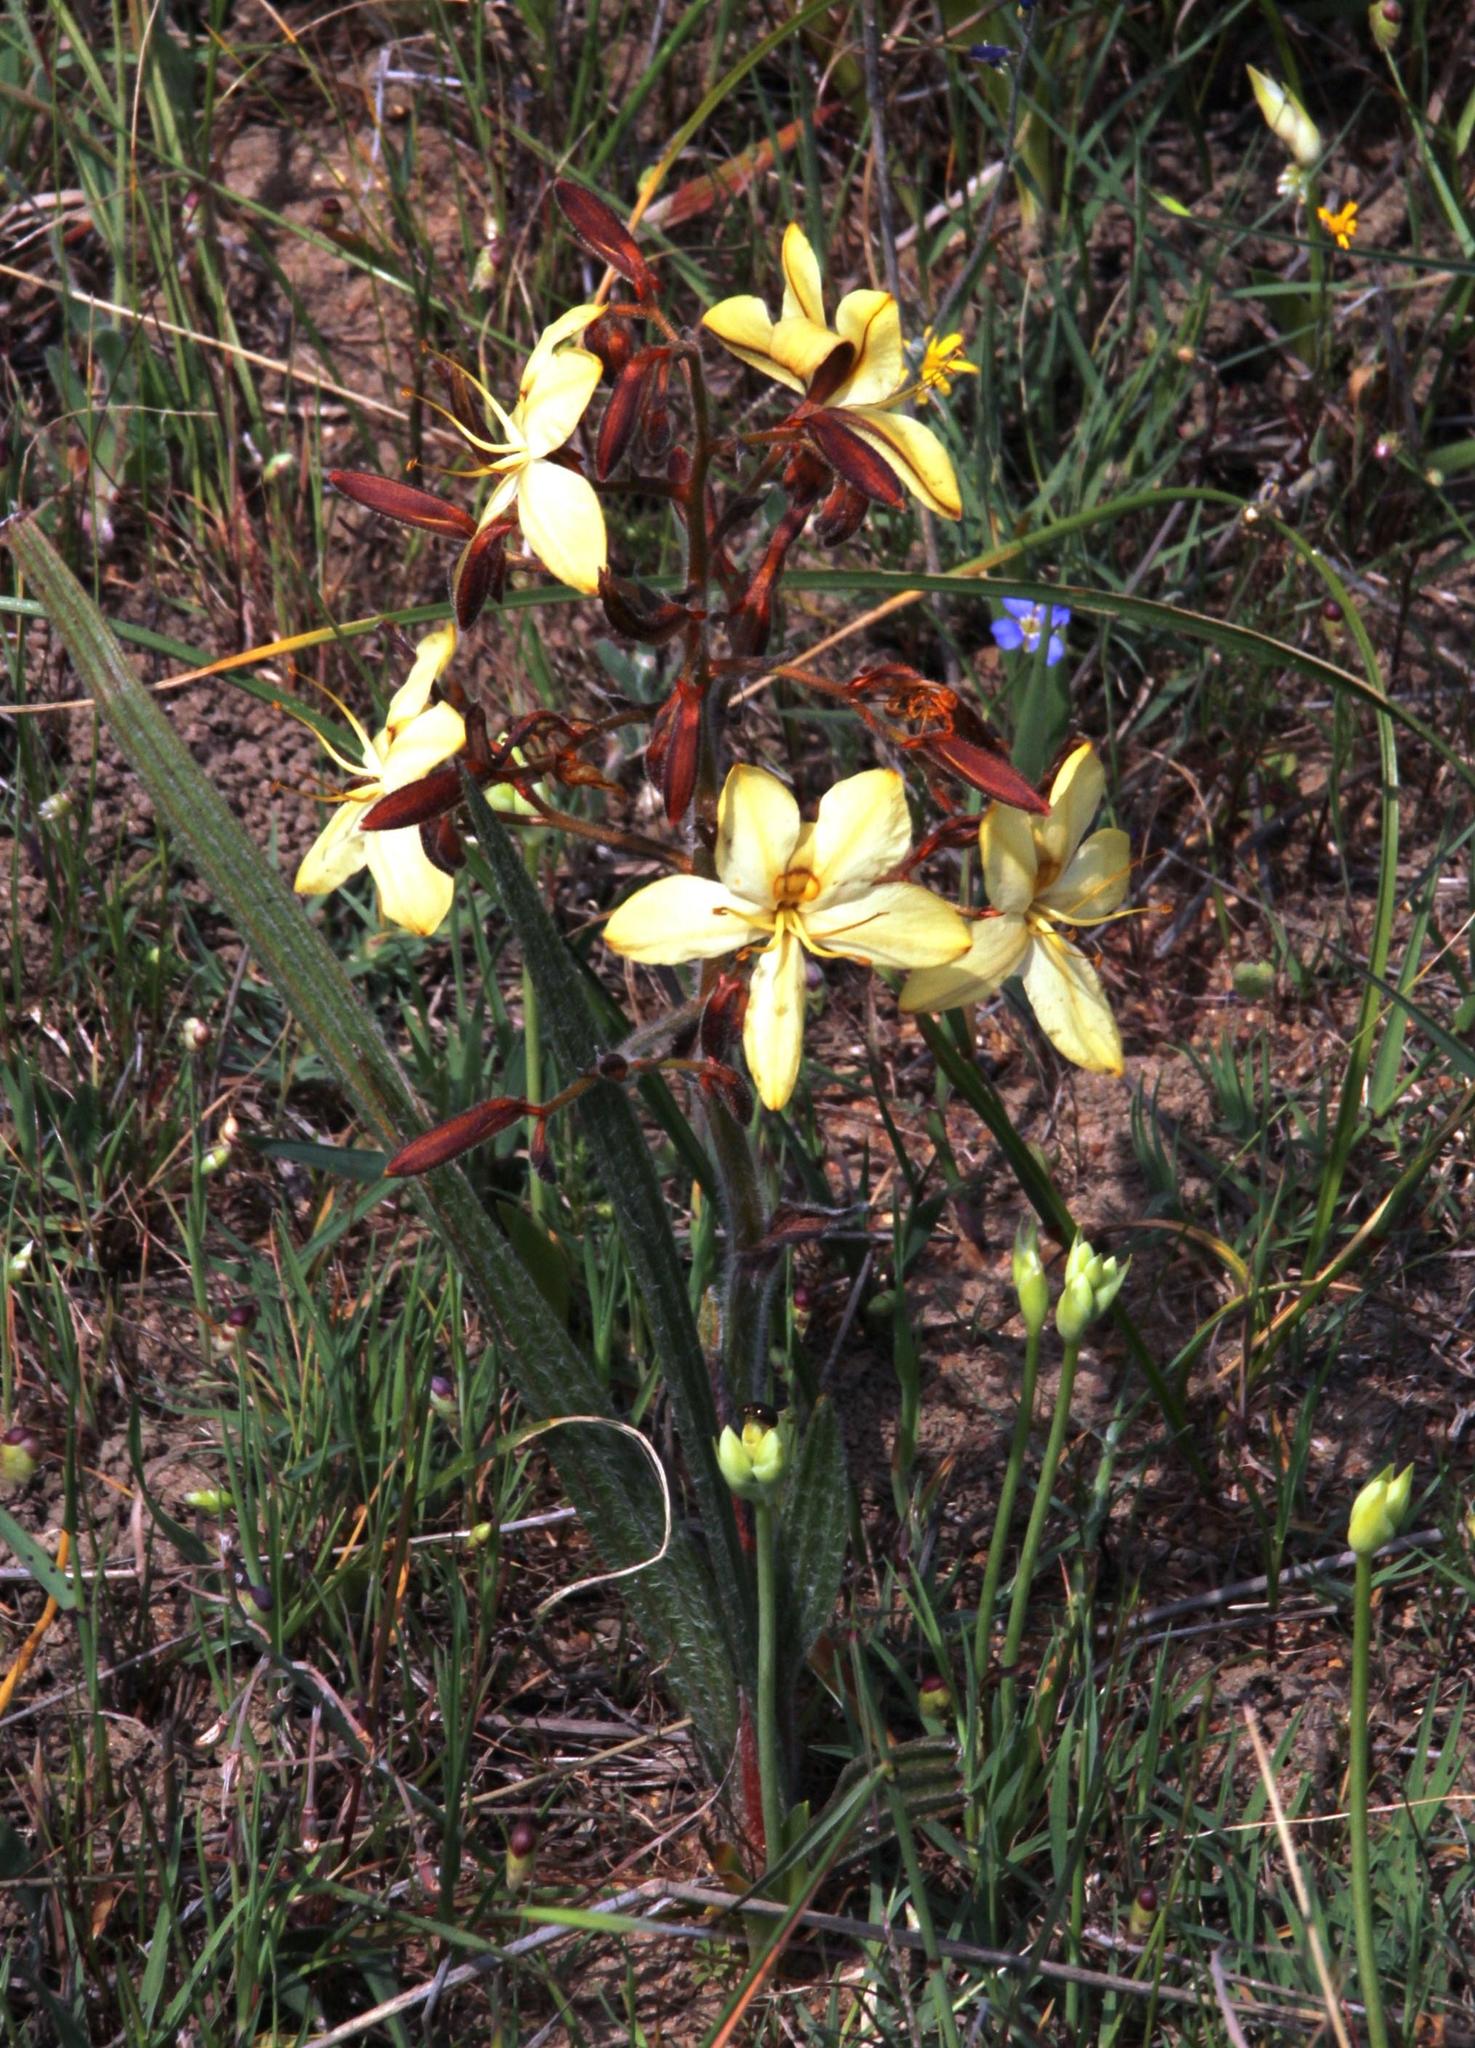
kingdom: Plantae
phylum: Tracheophyta
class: Liliopsida
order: Commelinales
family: Haemodoraceae
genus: Wachendorfia
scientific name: Wachendorfia paniculata
